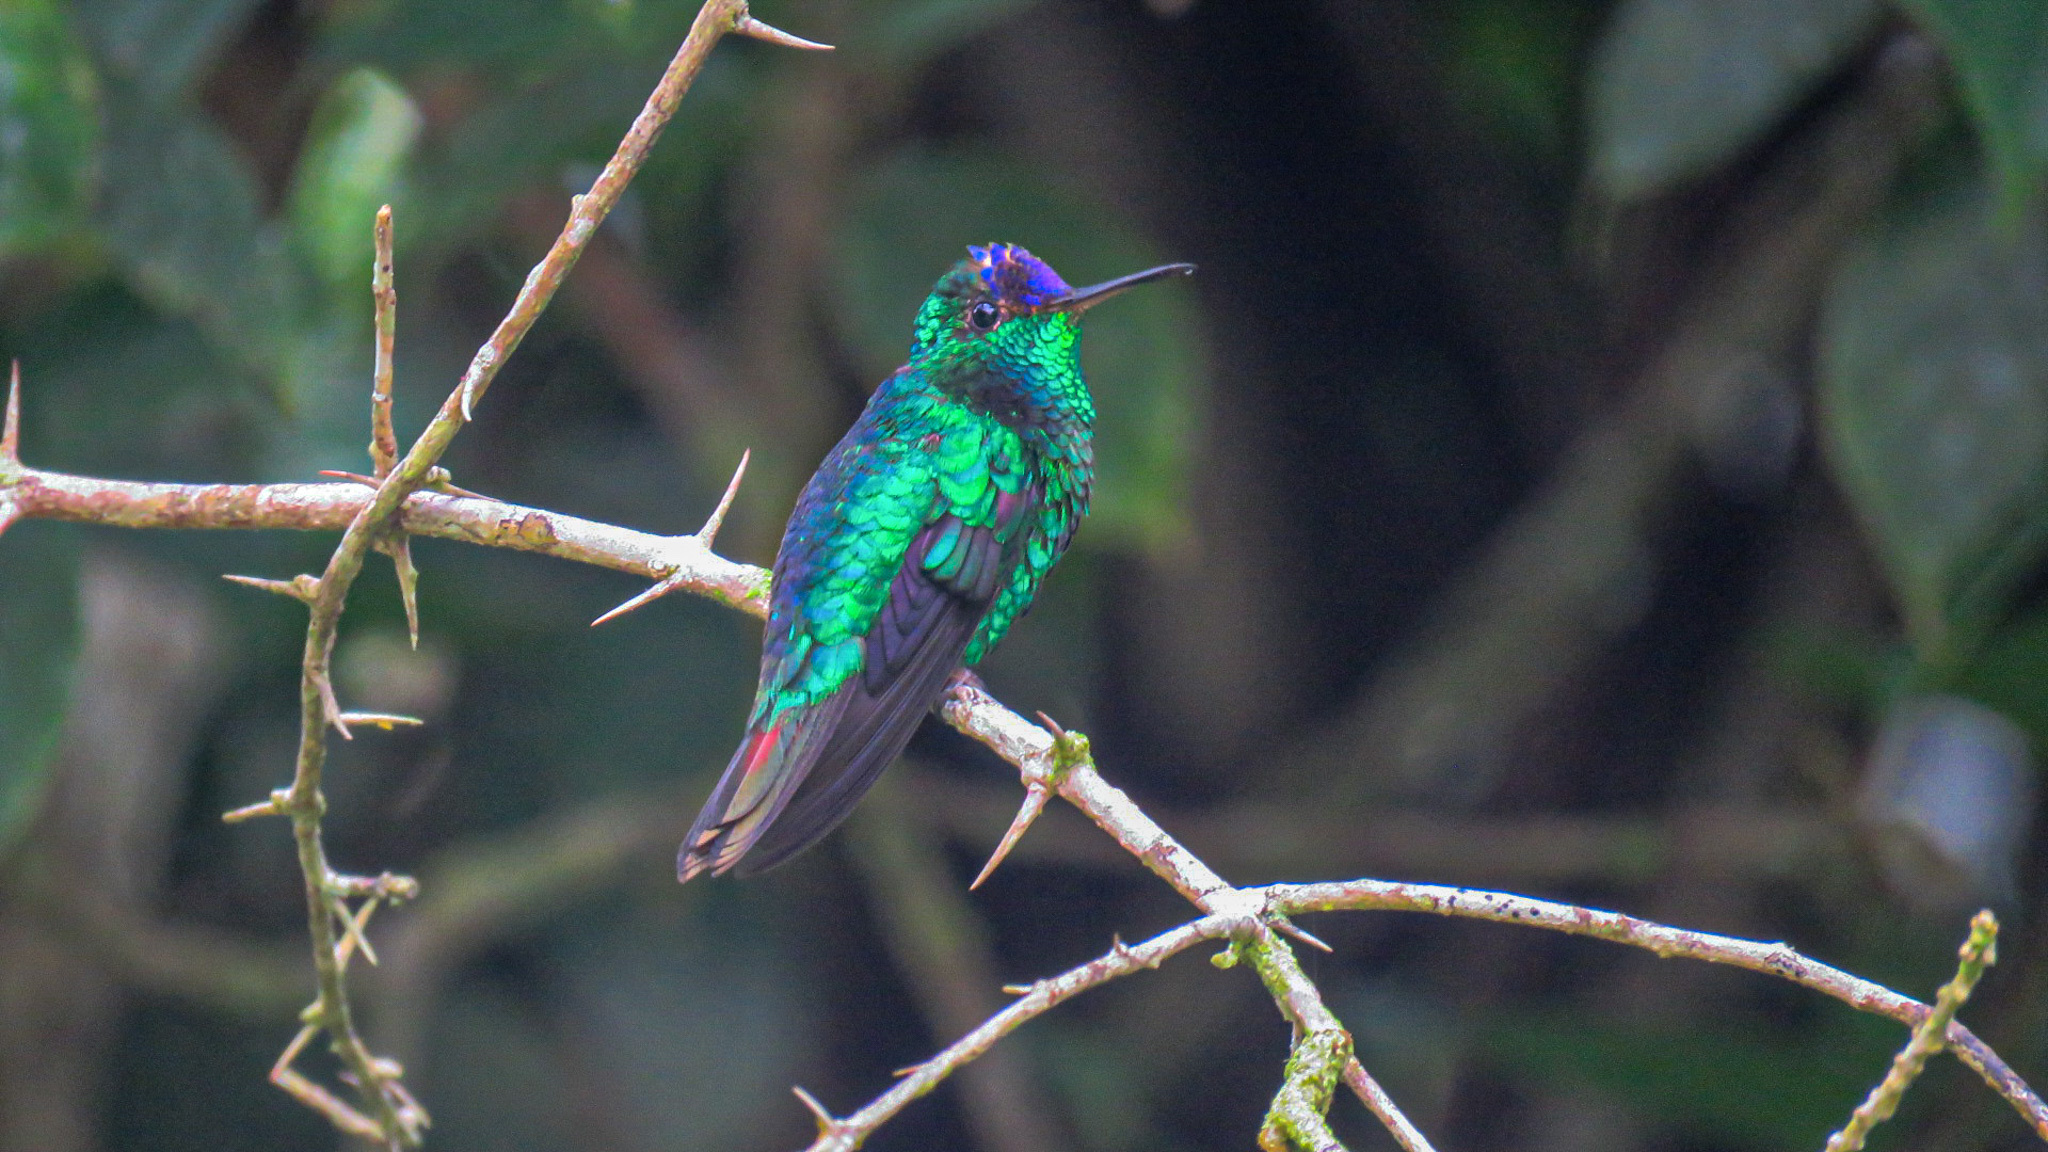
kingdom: Animalia
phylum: Chordata
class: Aves
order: Apodiformes
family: Trochilidae
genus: Goldmania
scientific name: Goldmania violiceps
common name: Violet-capped hummingbird
